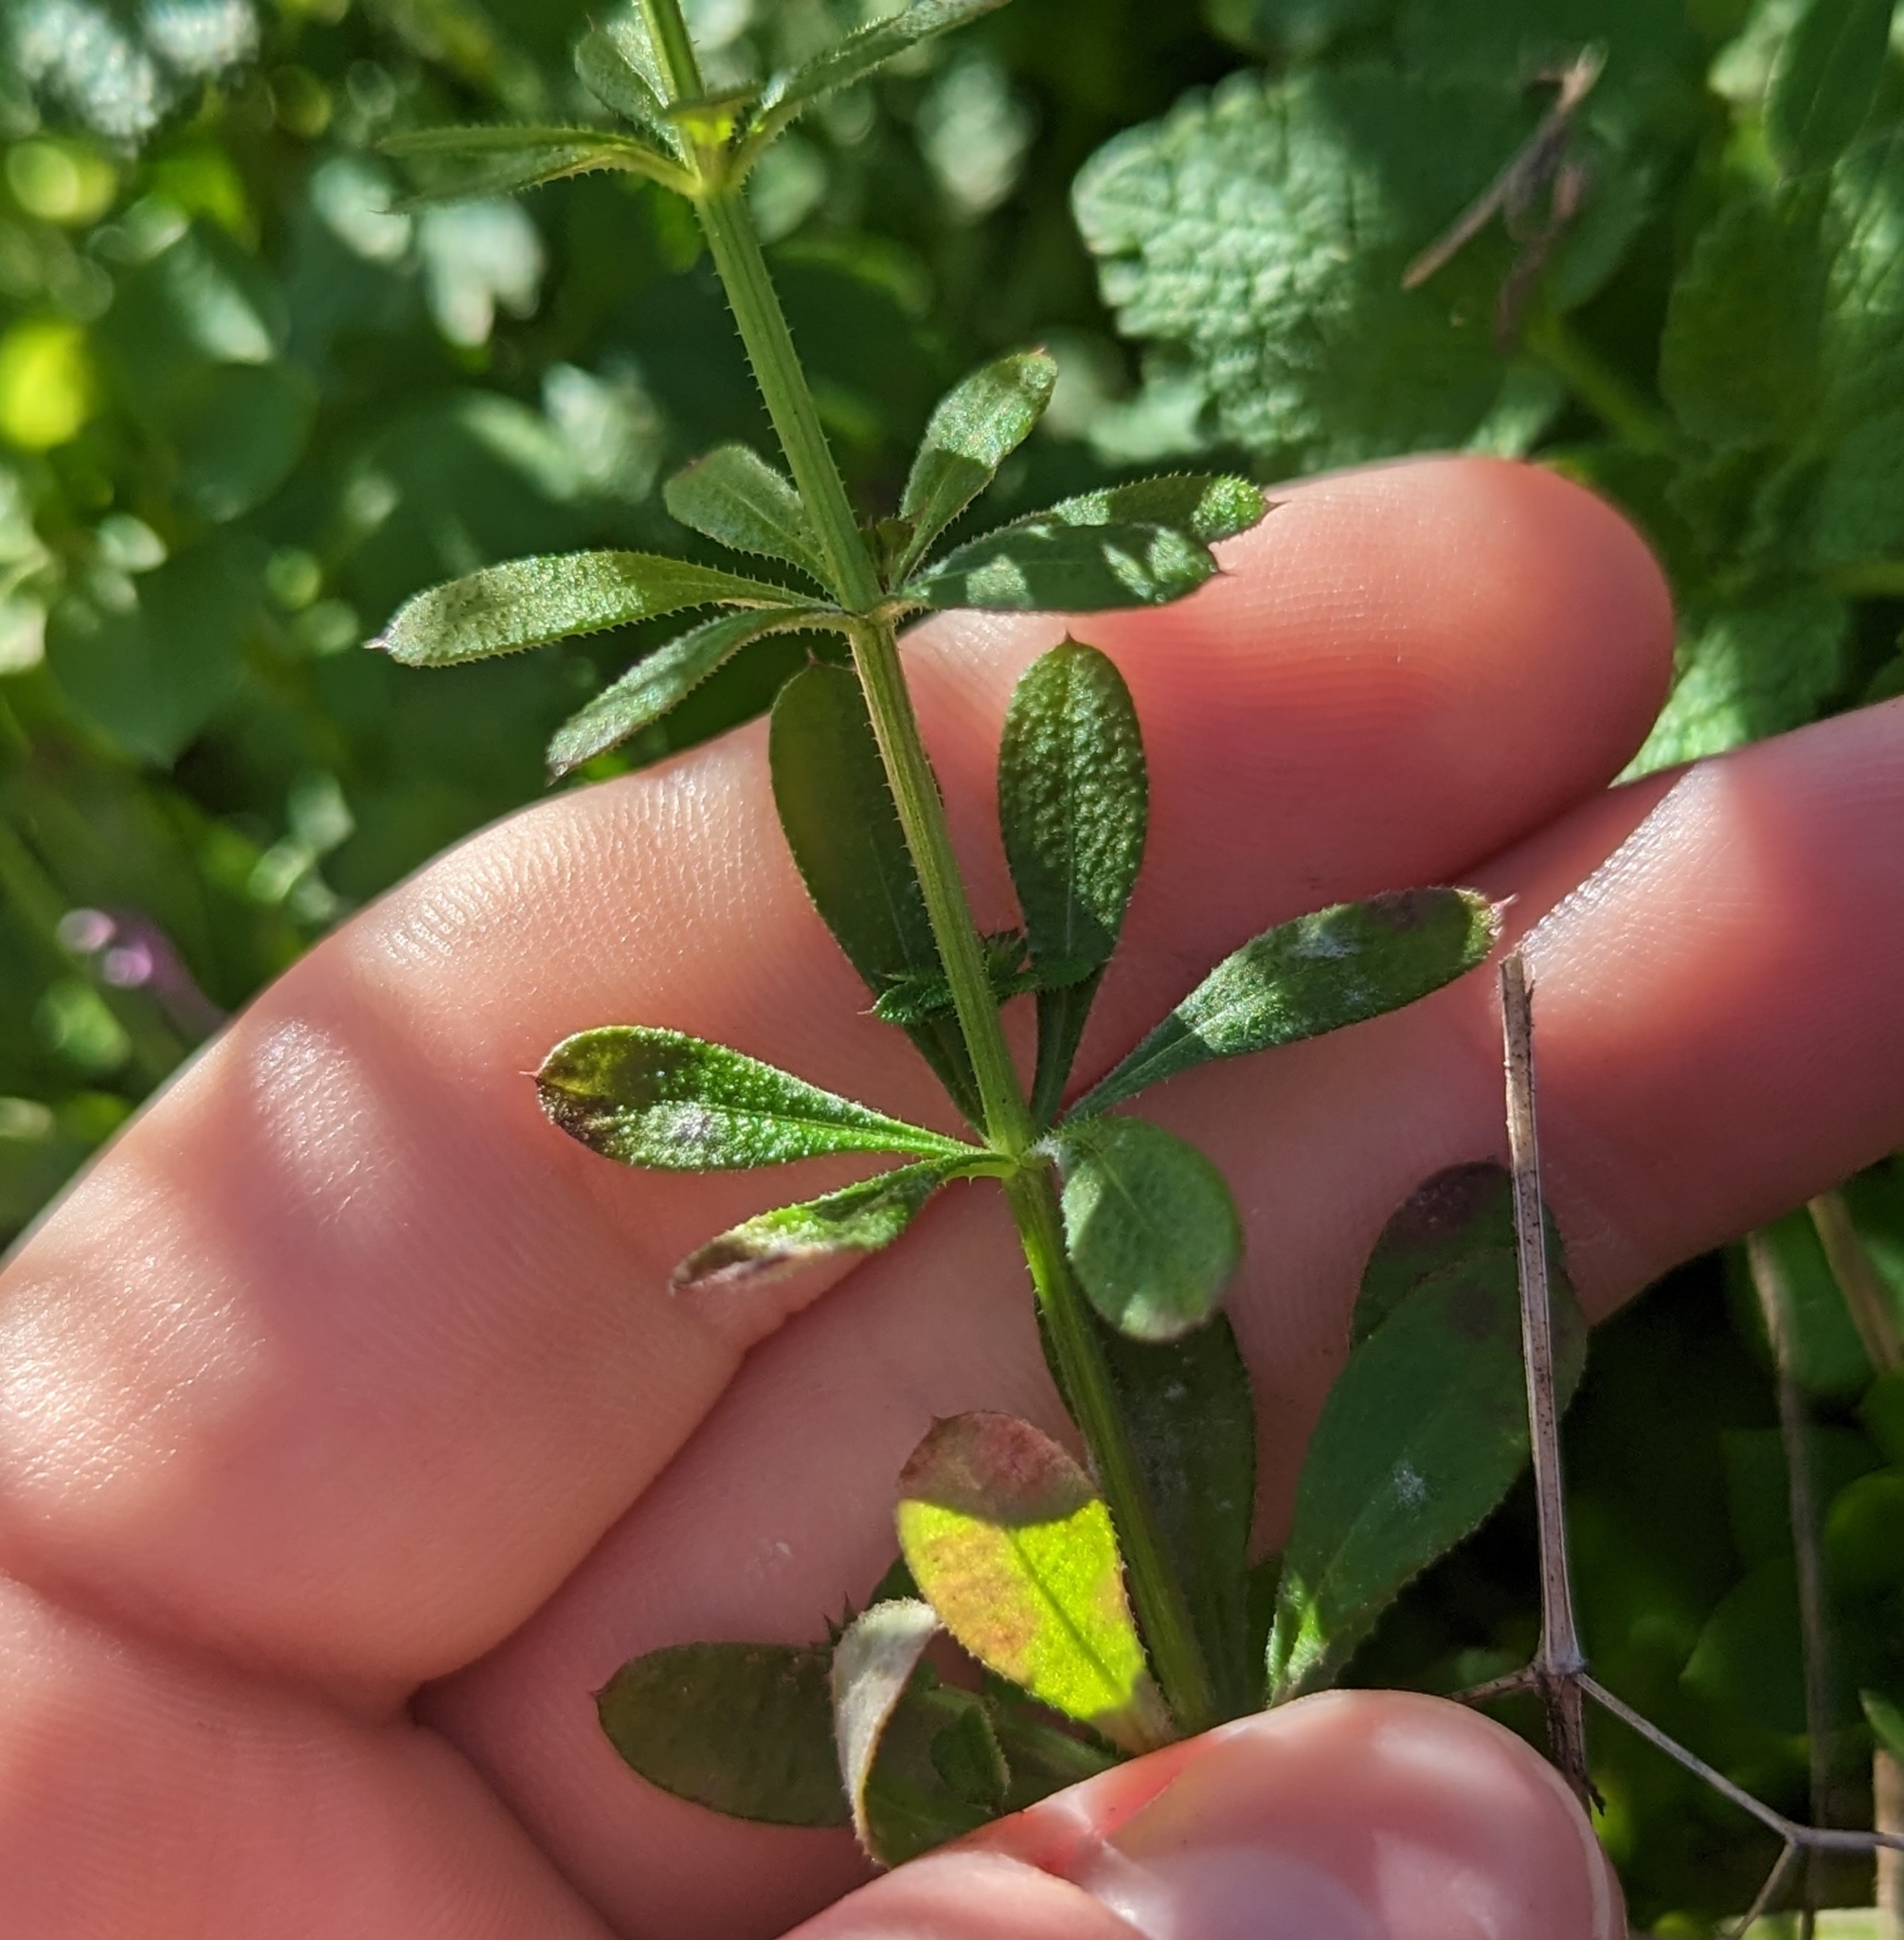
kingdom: Plantae
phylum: Tracheophyta
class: Magnoliopsida
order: Gentianales
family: Rubiaceae
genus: Galium
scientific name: Galium aparine
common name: Cleavers
